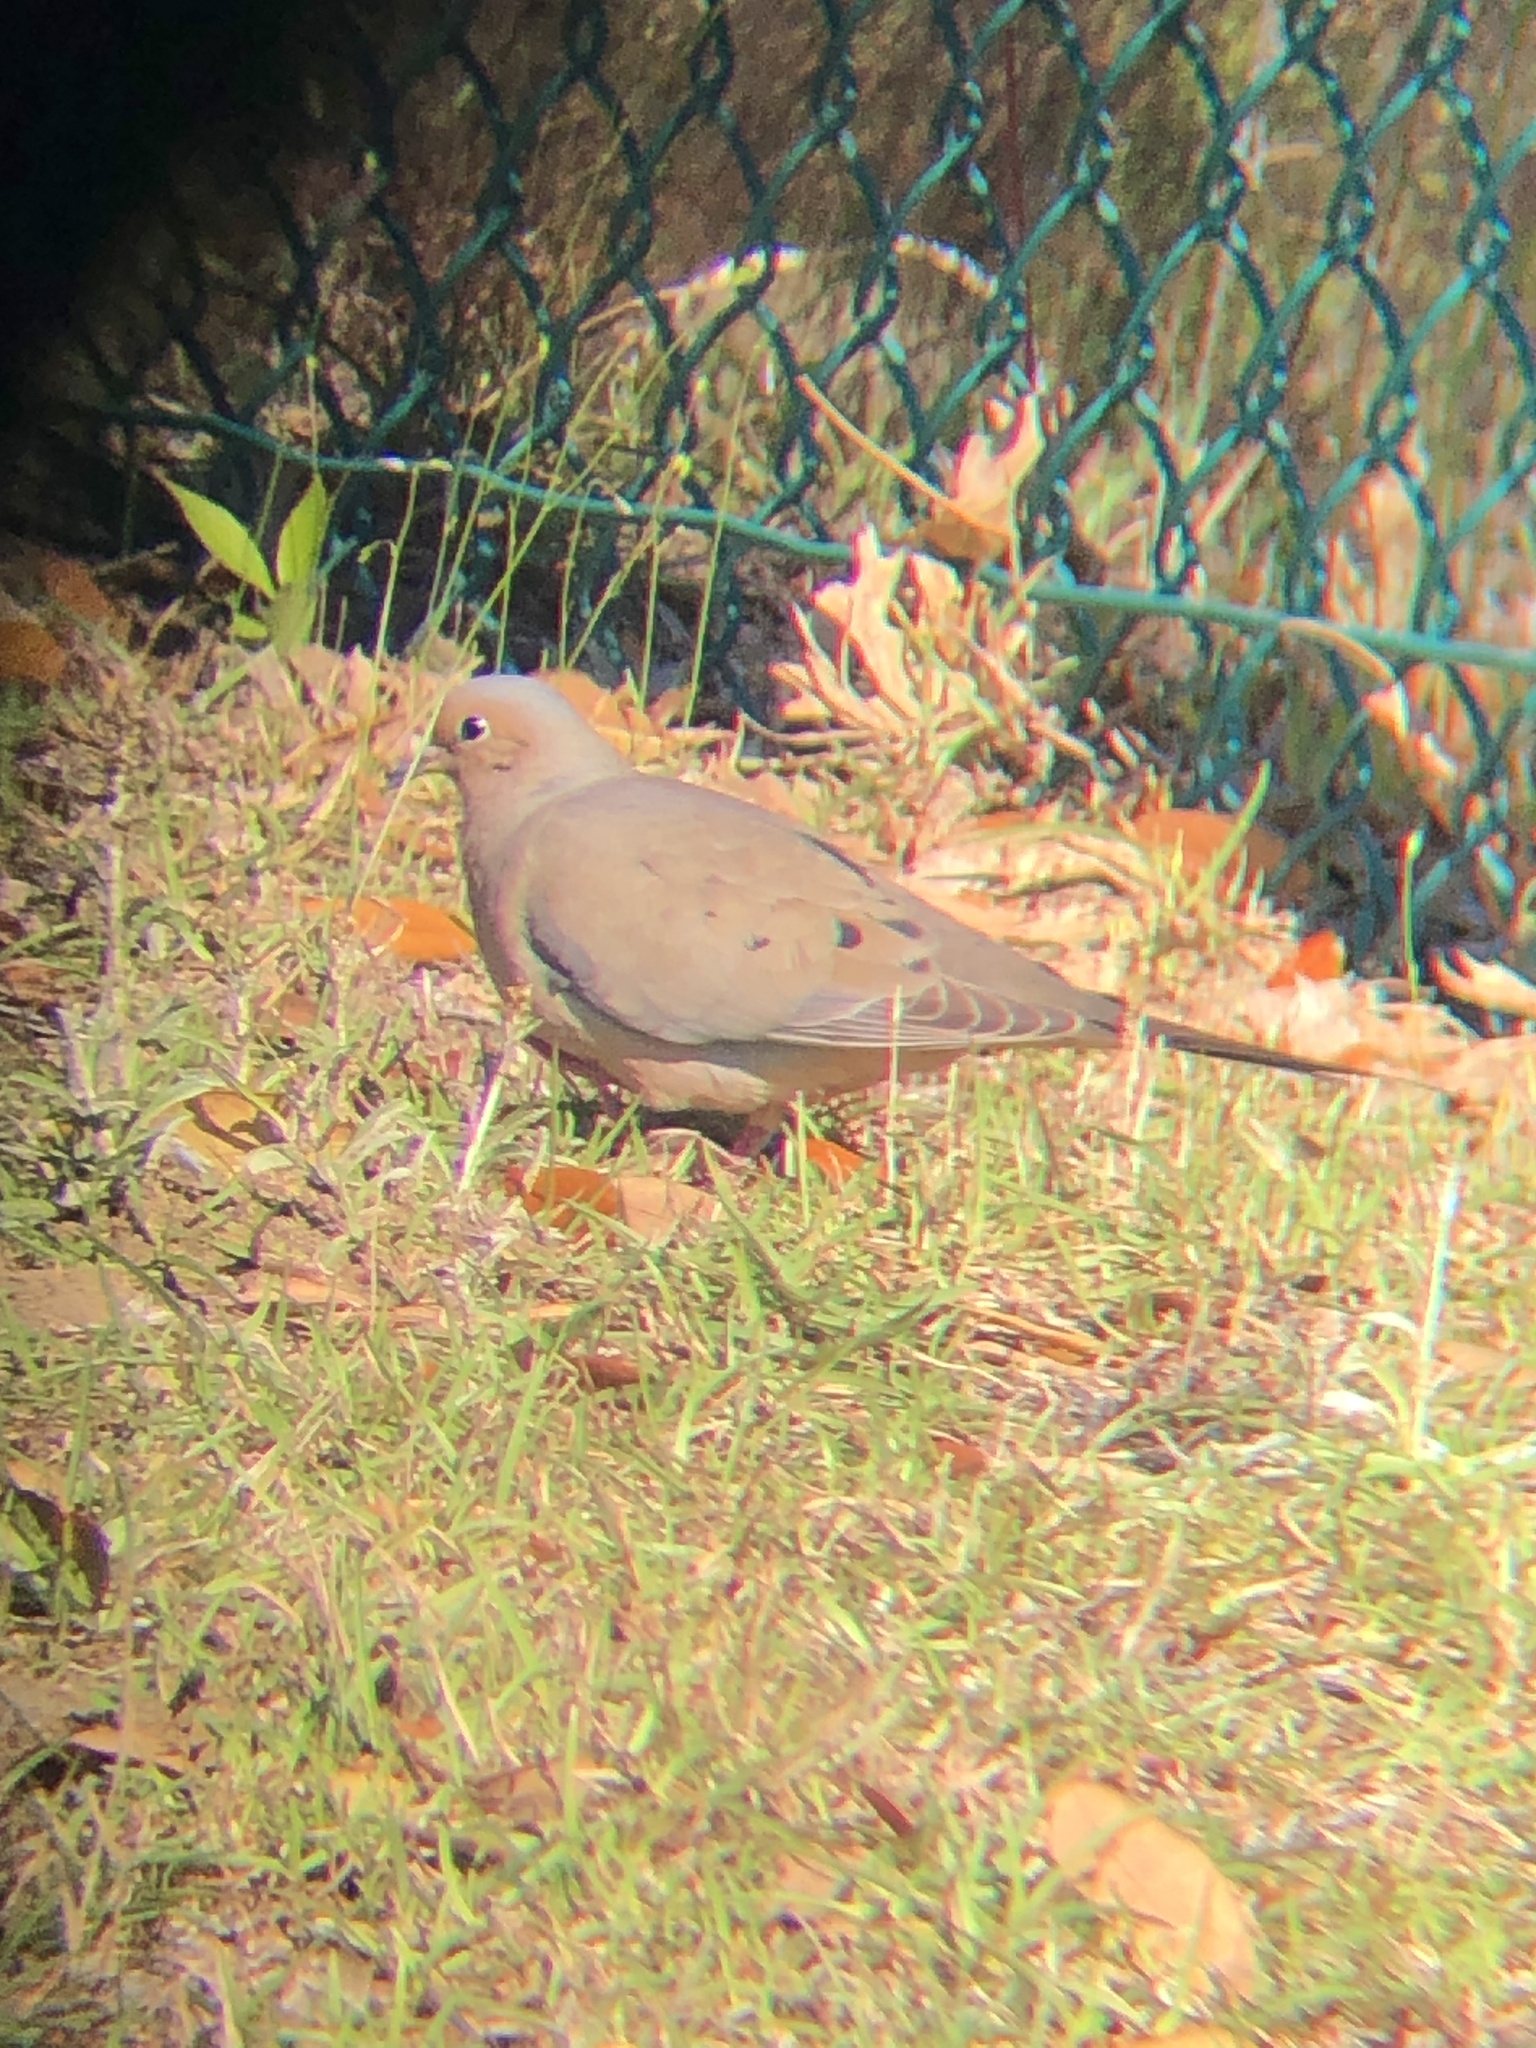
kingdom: Animalia
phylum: Chordata
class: Aves
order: Columbiformes
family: Columbidae
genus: Zenaida
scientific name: Zenaida macroura
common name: Mourning dove
